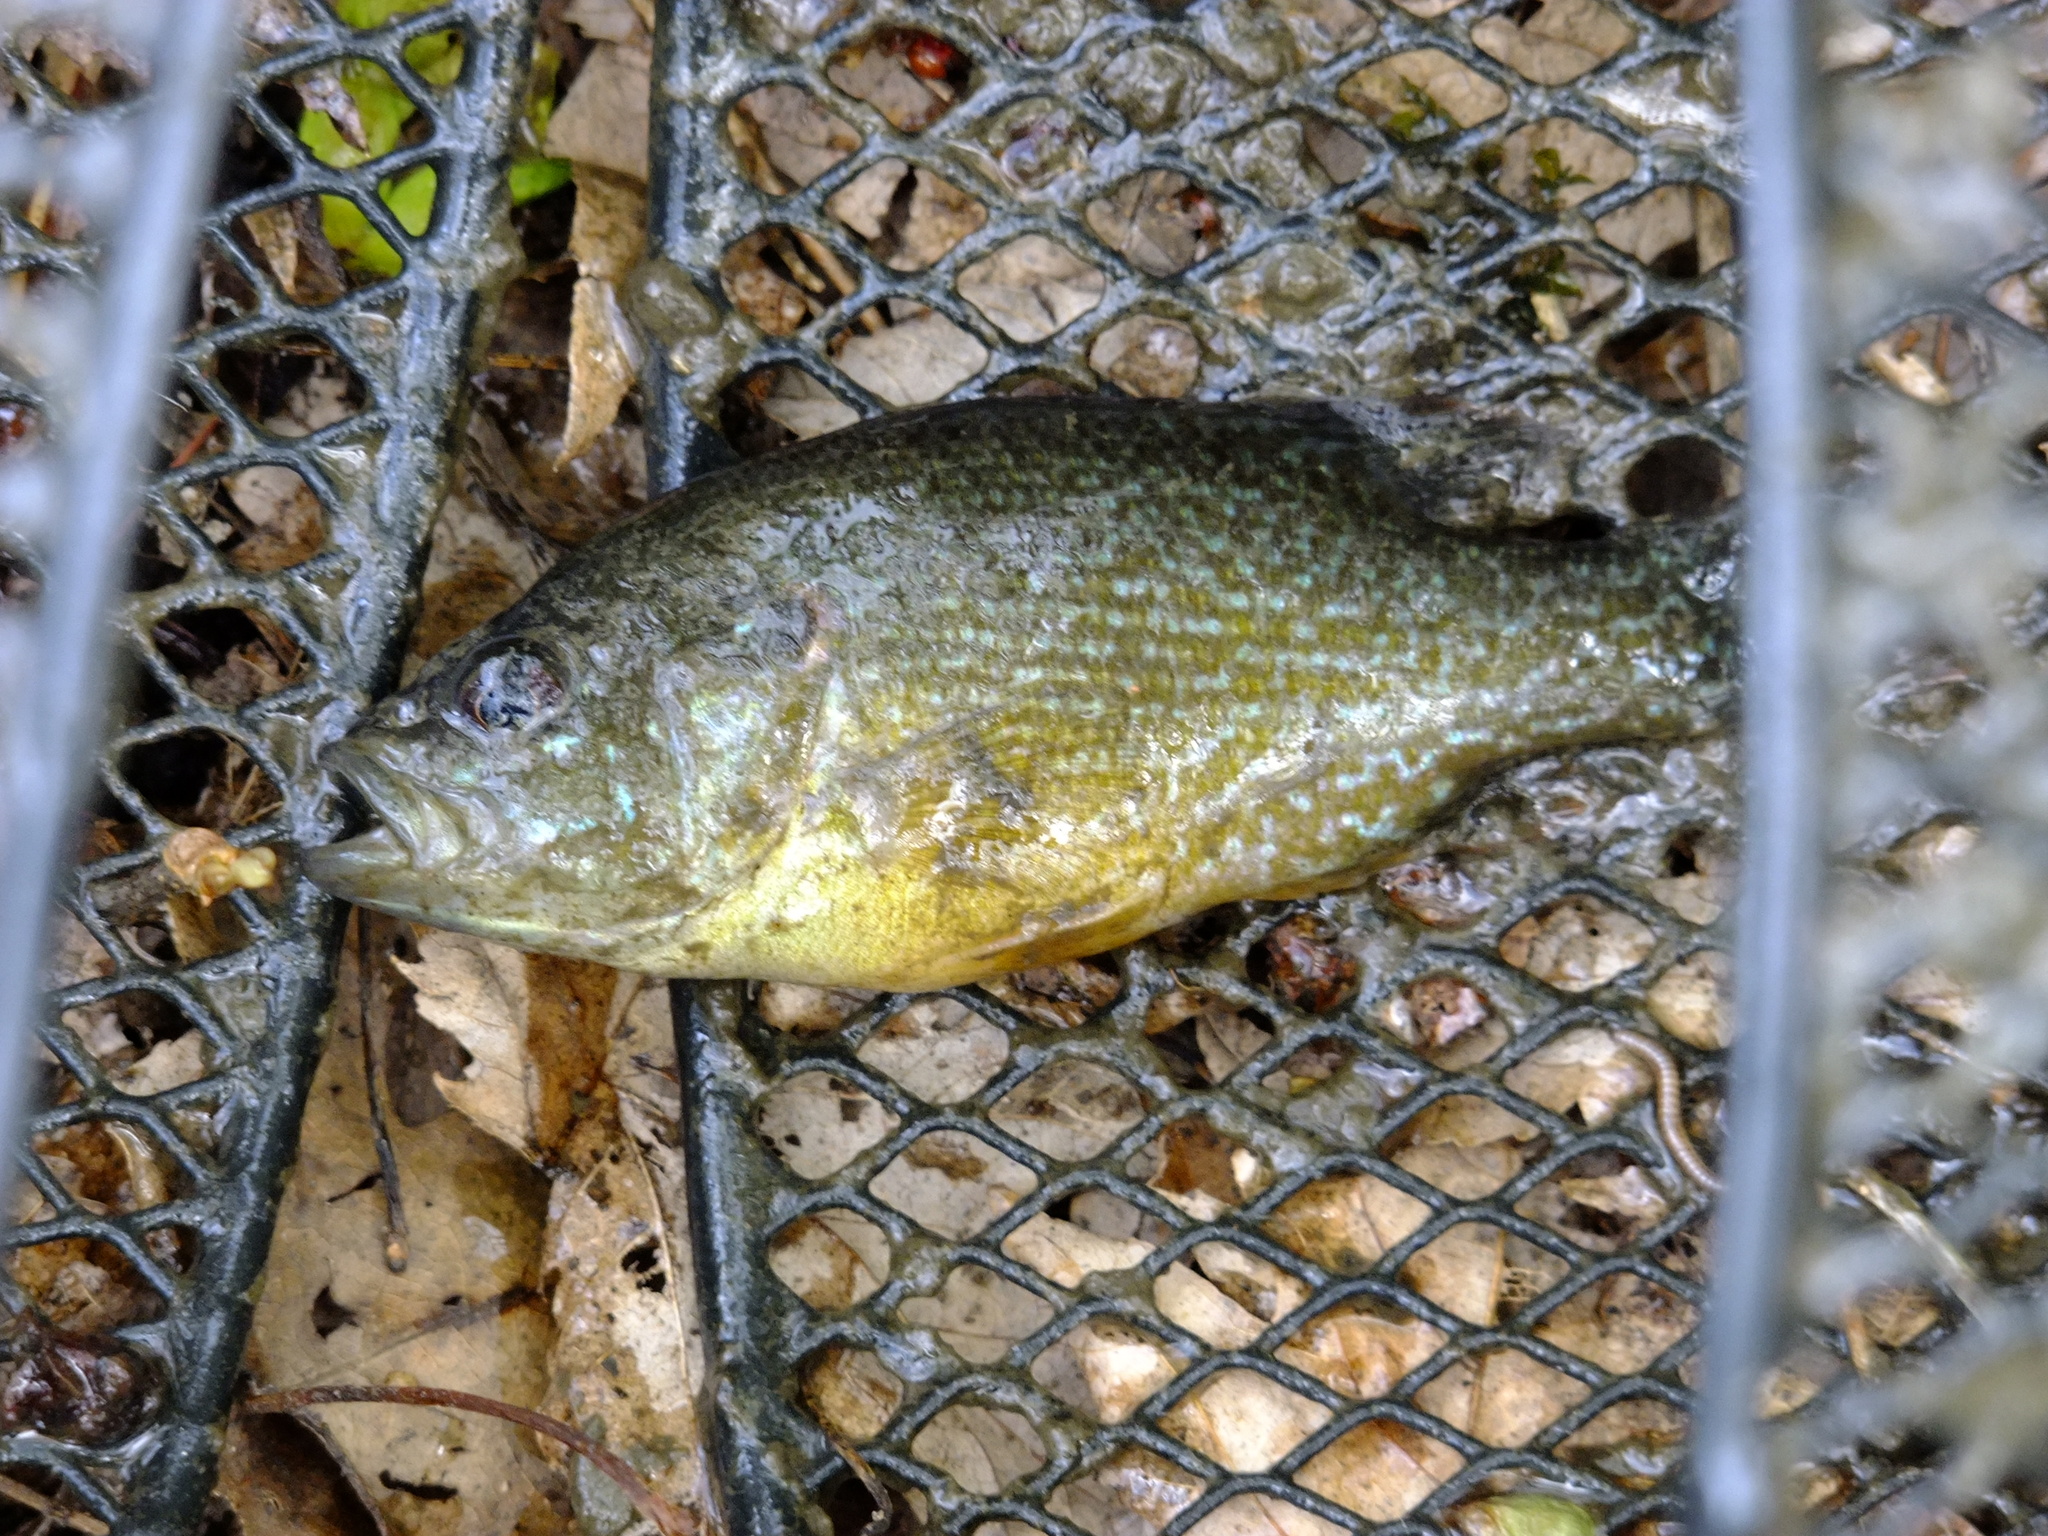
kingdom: Animalia
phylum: Chordata
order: Perciformes
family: Centrarchidae
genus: Lepomis
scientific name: Lepomis cyanellus
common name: Green sunfish
